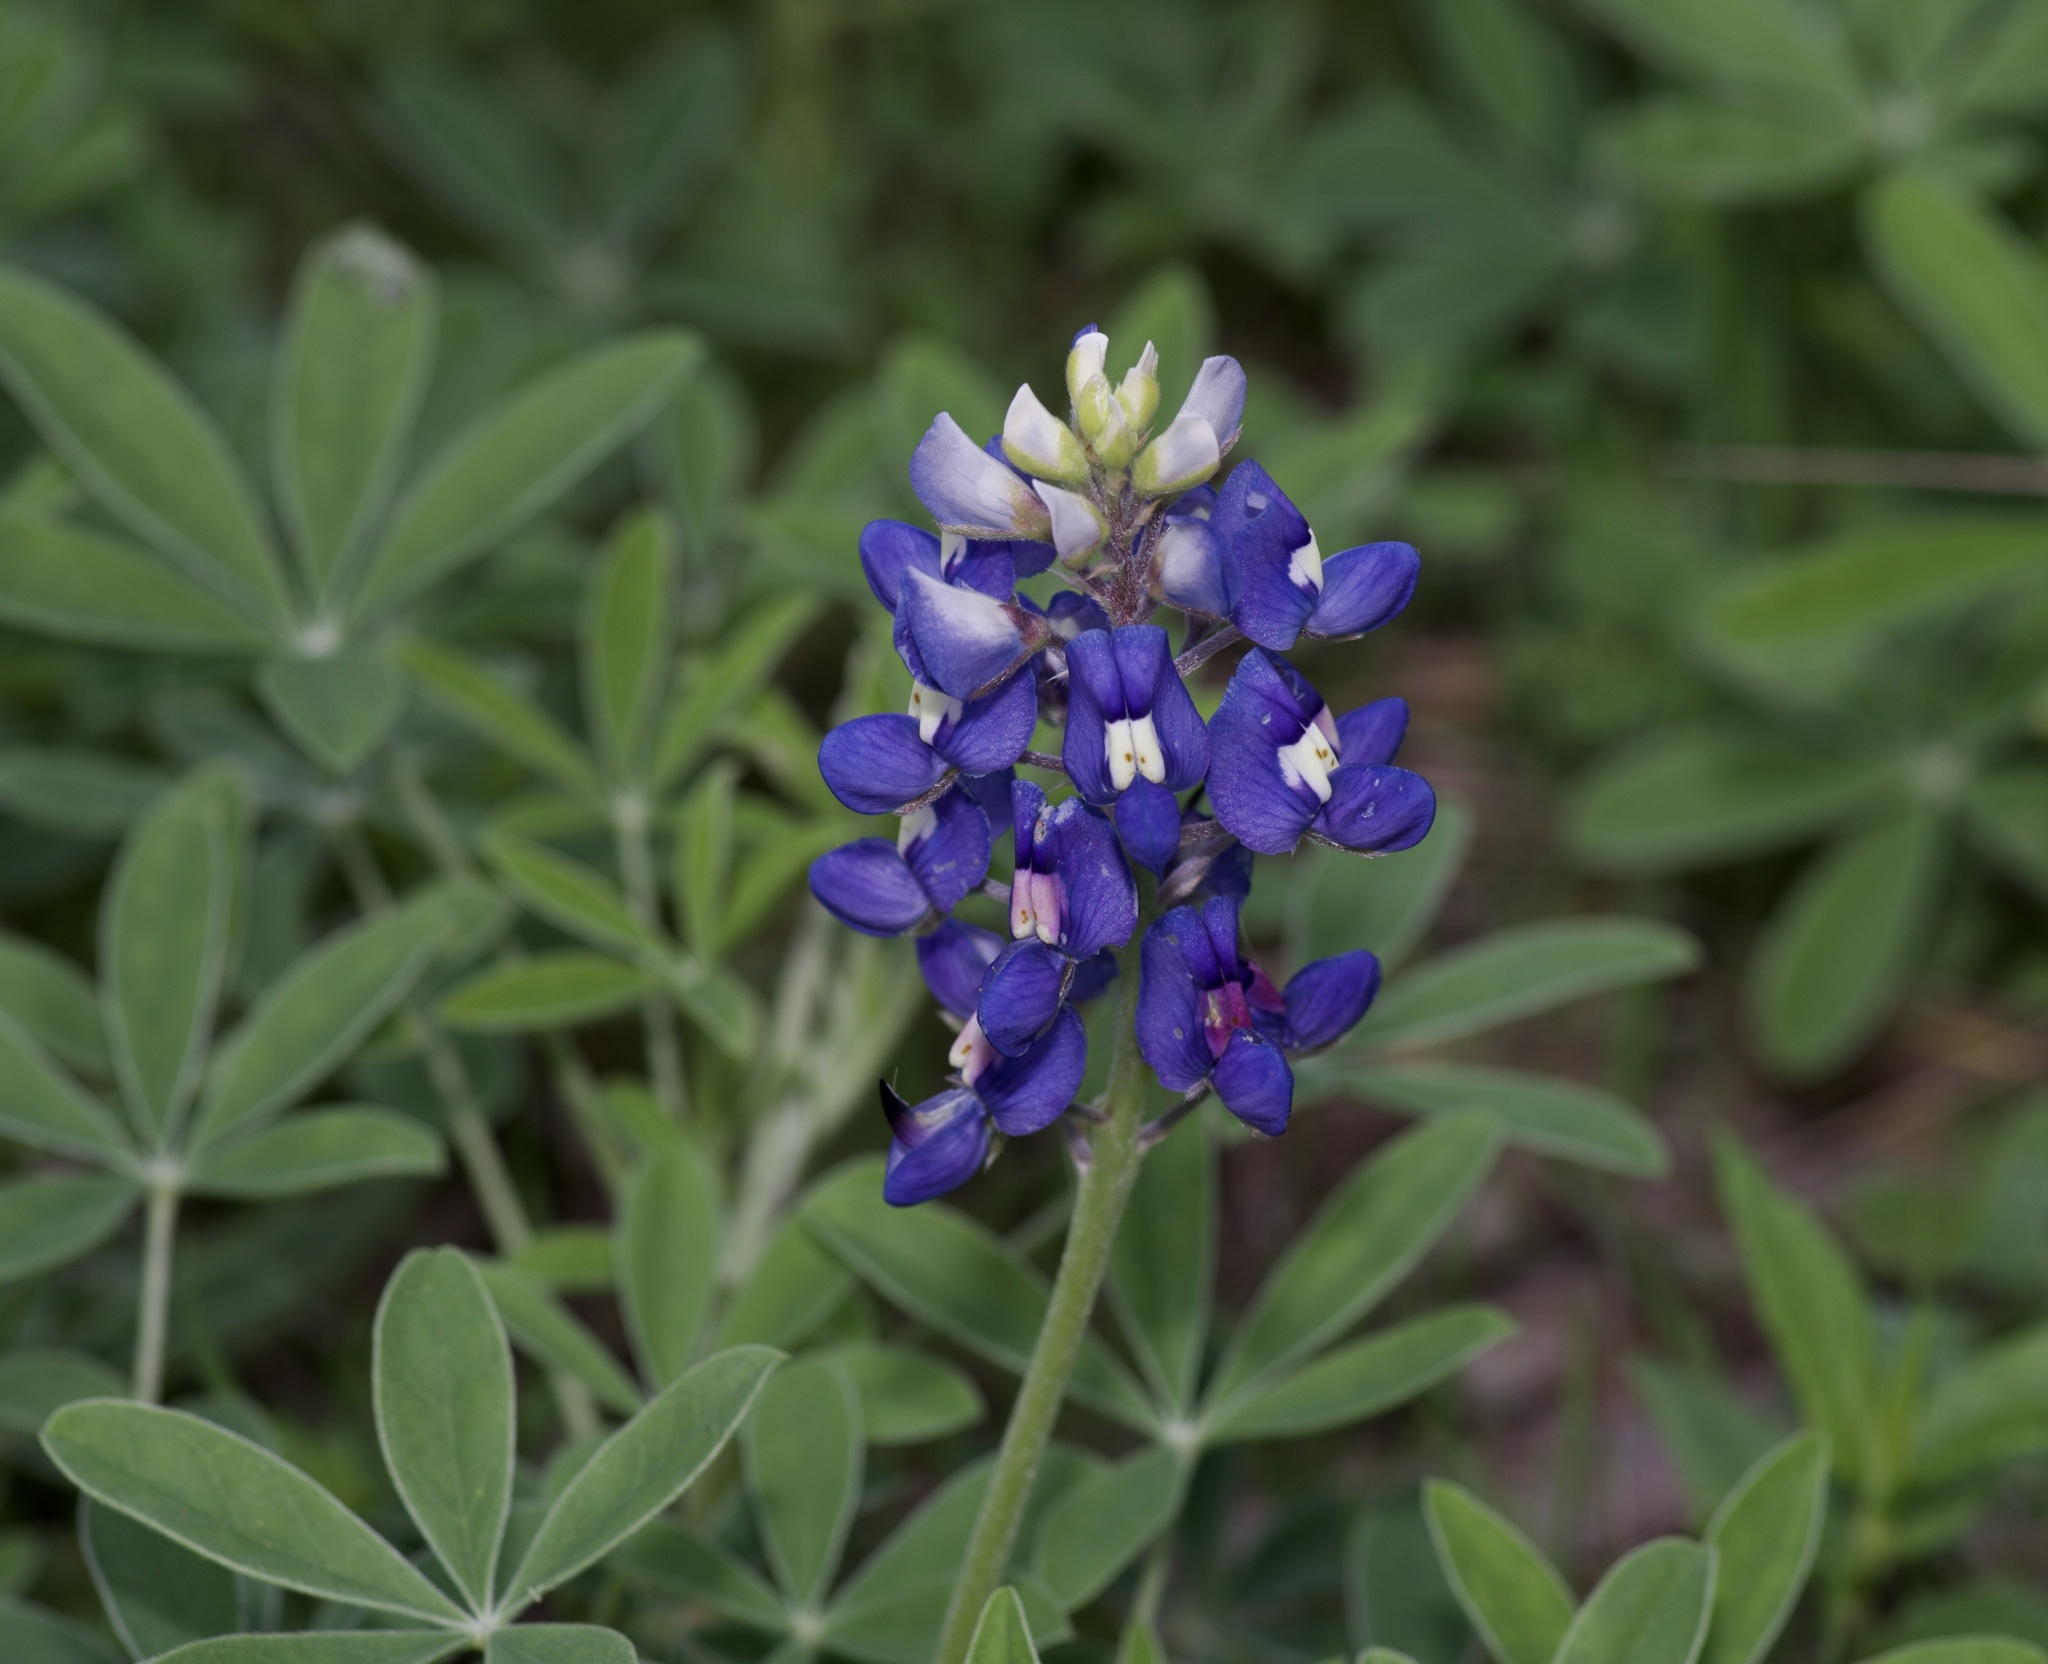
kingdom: Plantae
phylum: Tracheophyta
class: Magnoliopsida
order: Fabales
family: Fabaceae
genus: Lupinus
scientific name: Lupinus texensis
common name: Texas bluebonnet
